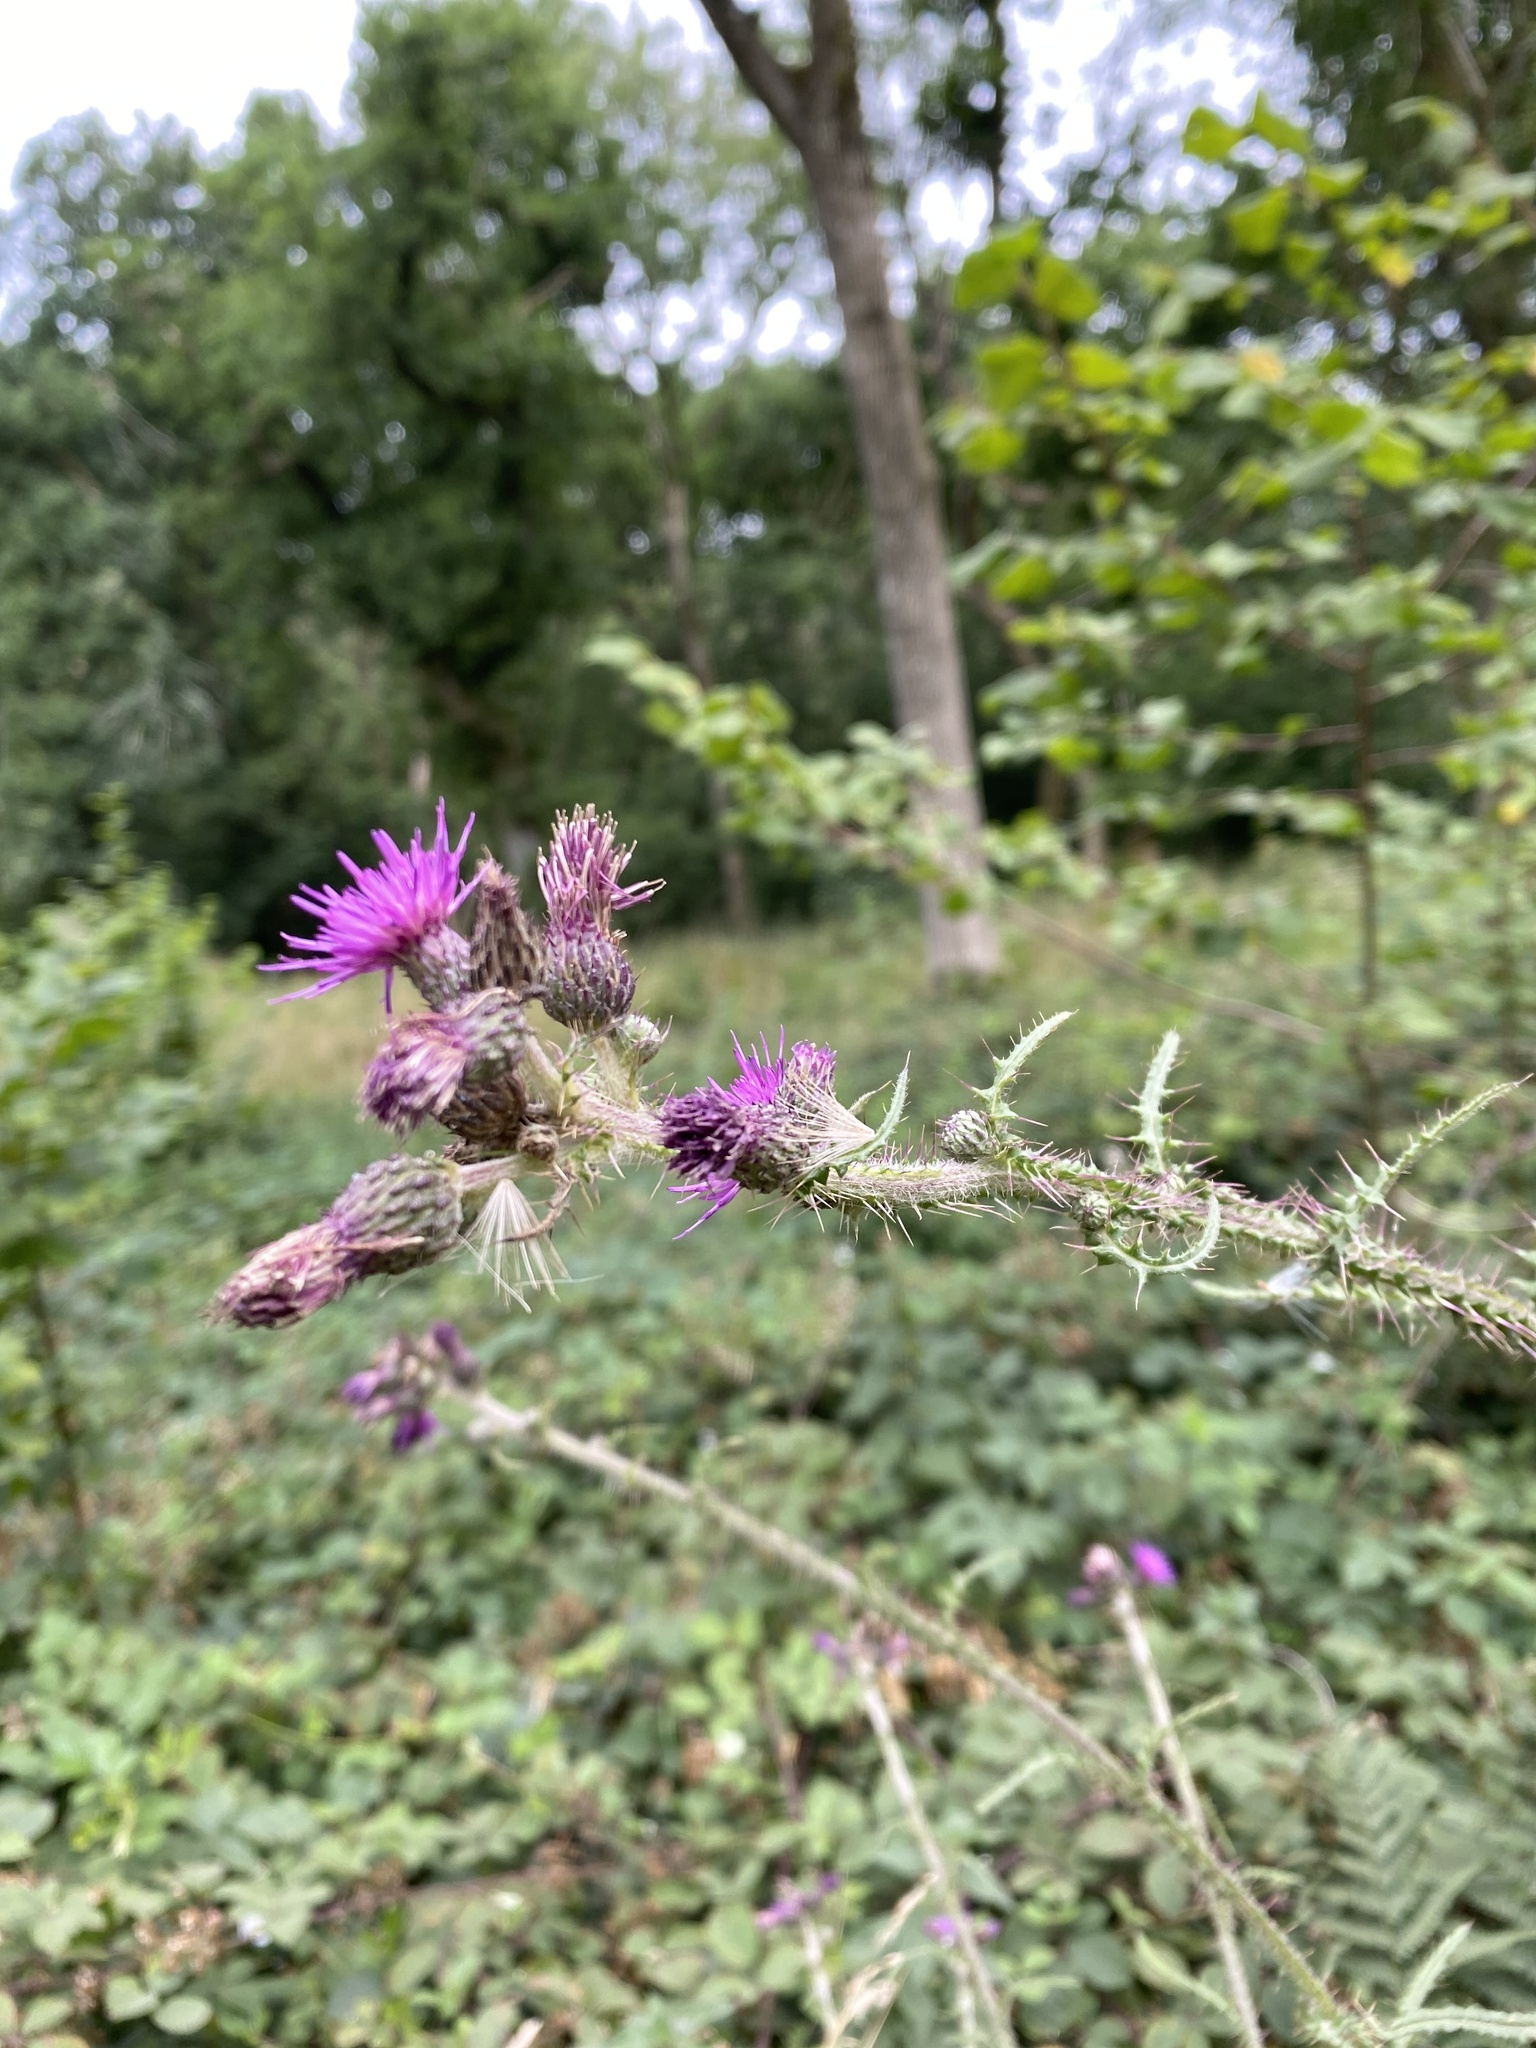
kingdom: Plantae
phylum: Tracheophyta
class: Magnoliopsida
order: Asterales
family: Asteraceae
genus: Cirsium
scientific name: Cirsium palustre
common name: Marsh thistle
